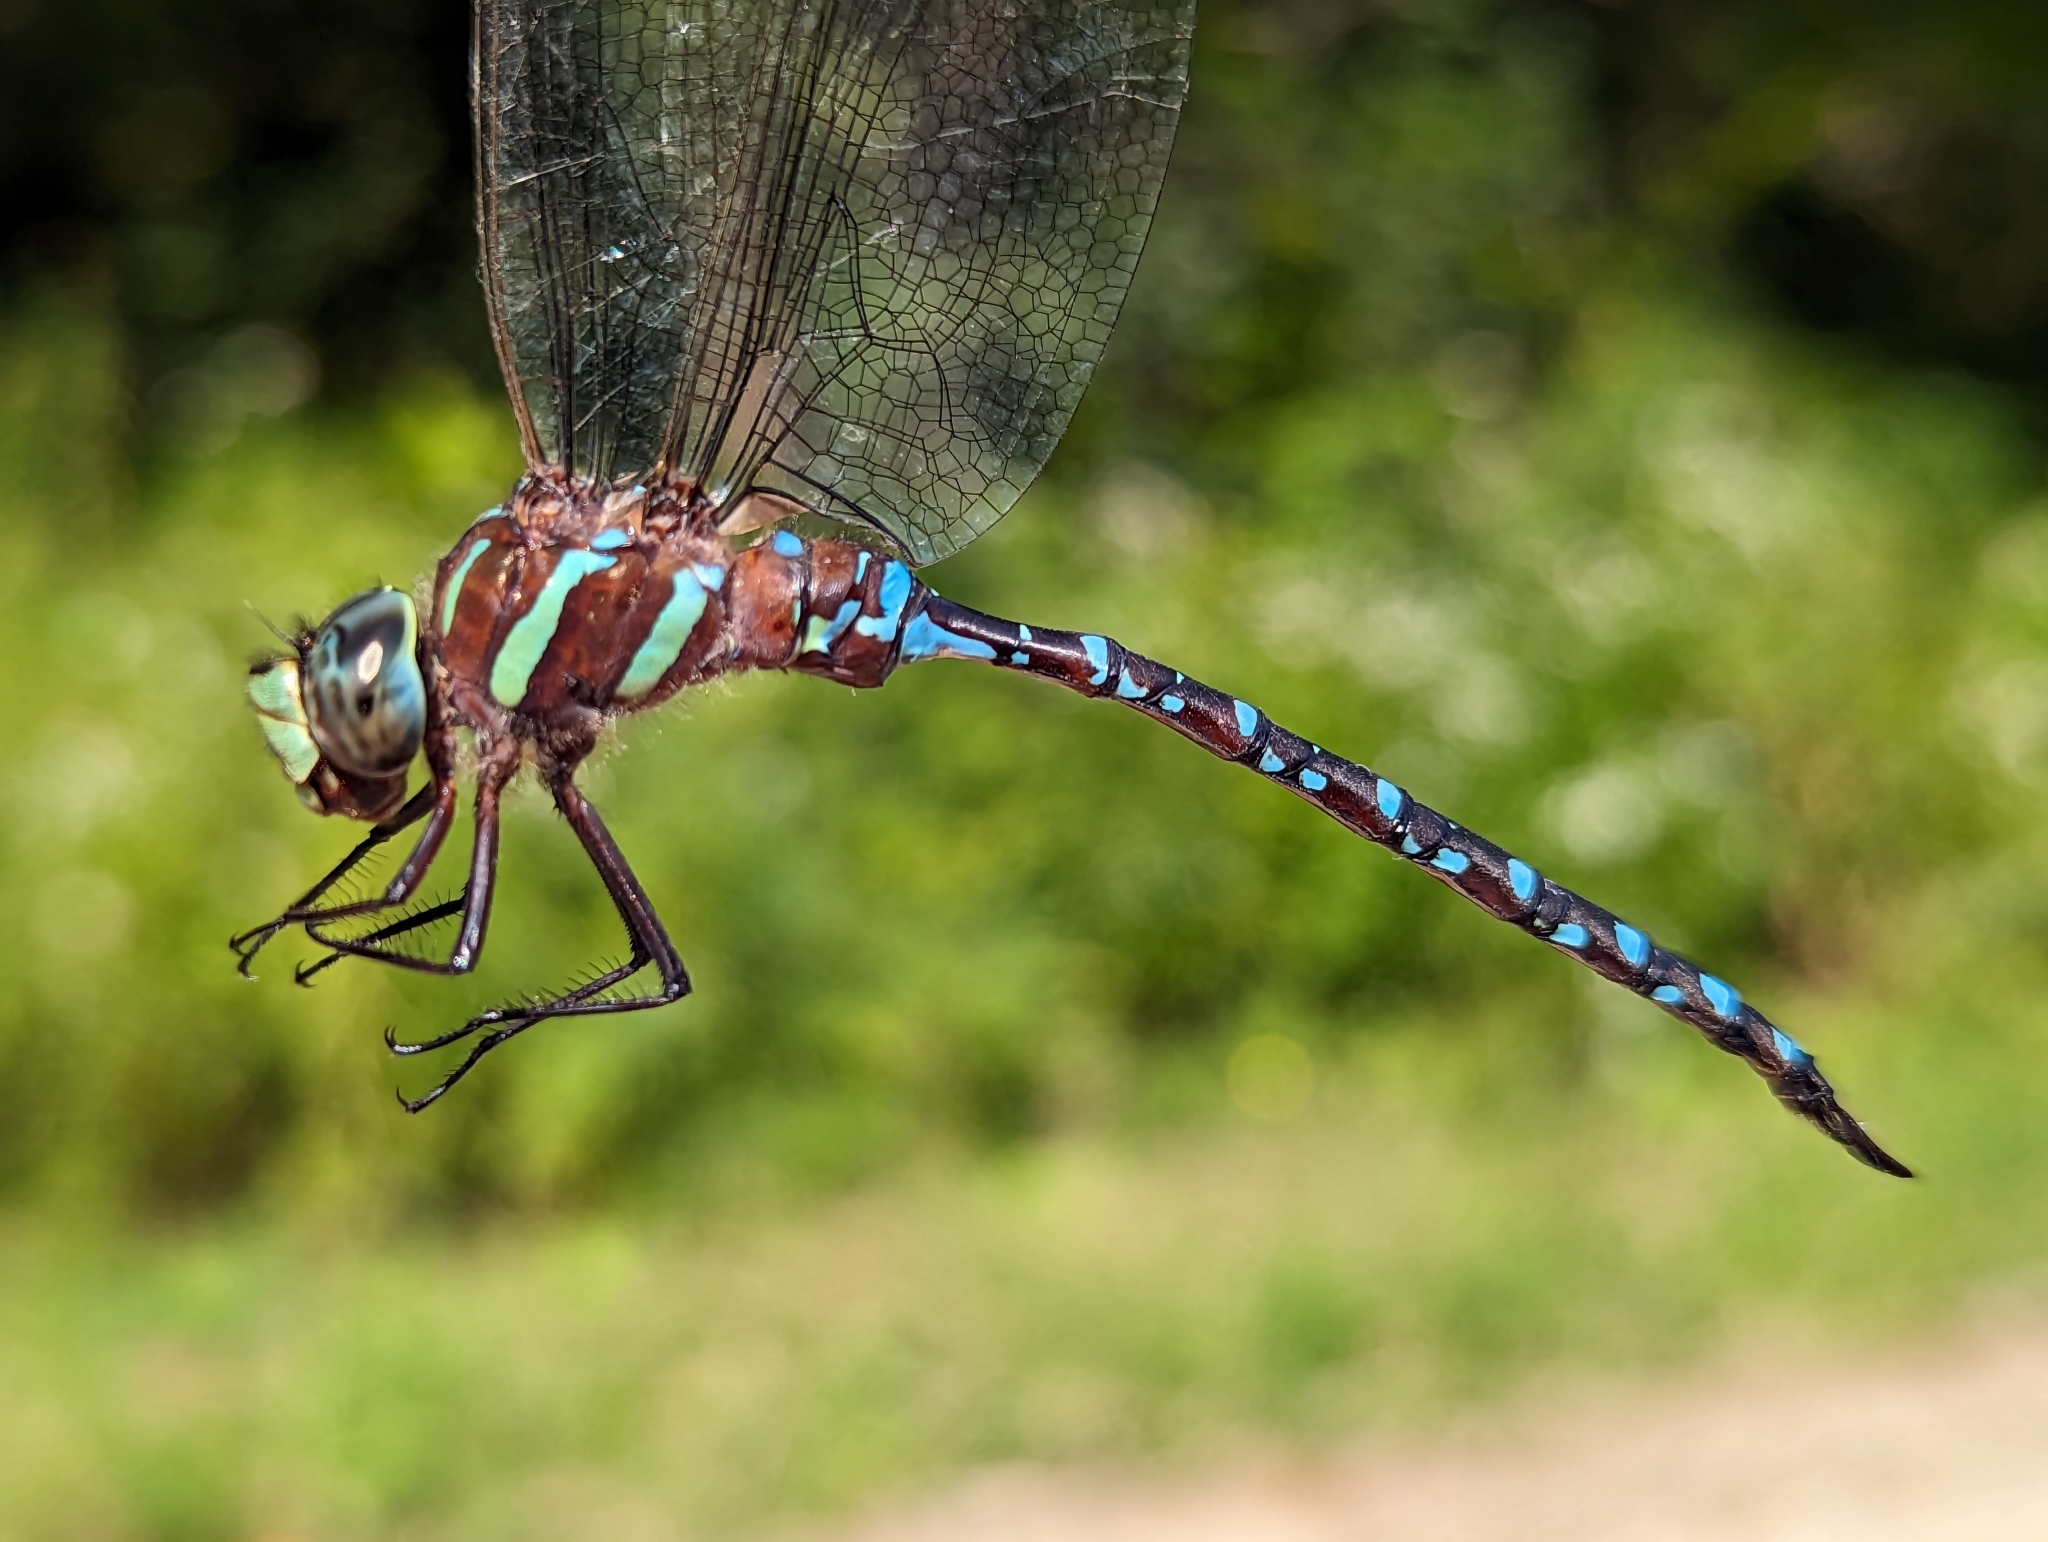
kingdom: Animalia
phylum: Arthropoda
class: Insecta
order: Odonata
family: Aeshnidae
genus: Aeshna
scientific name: Aeshna tuberculifera
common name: Aeschne à tubercules
